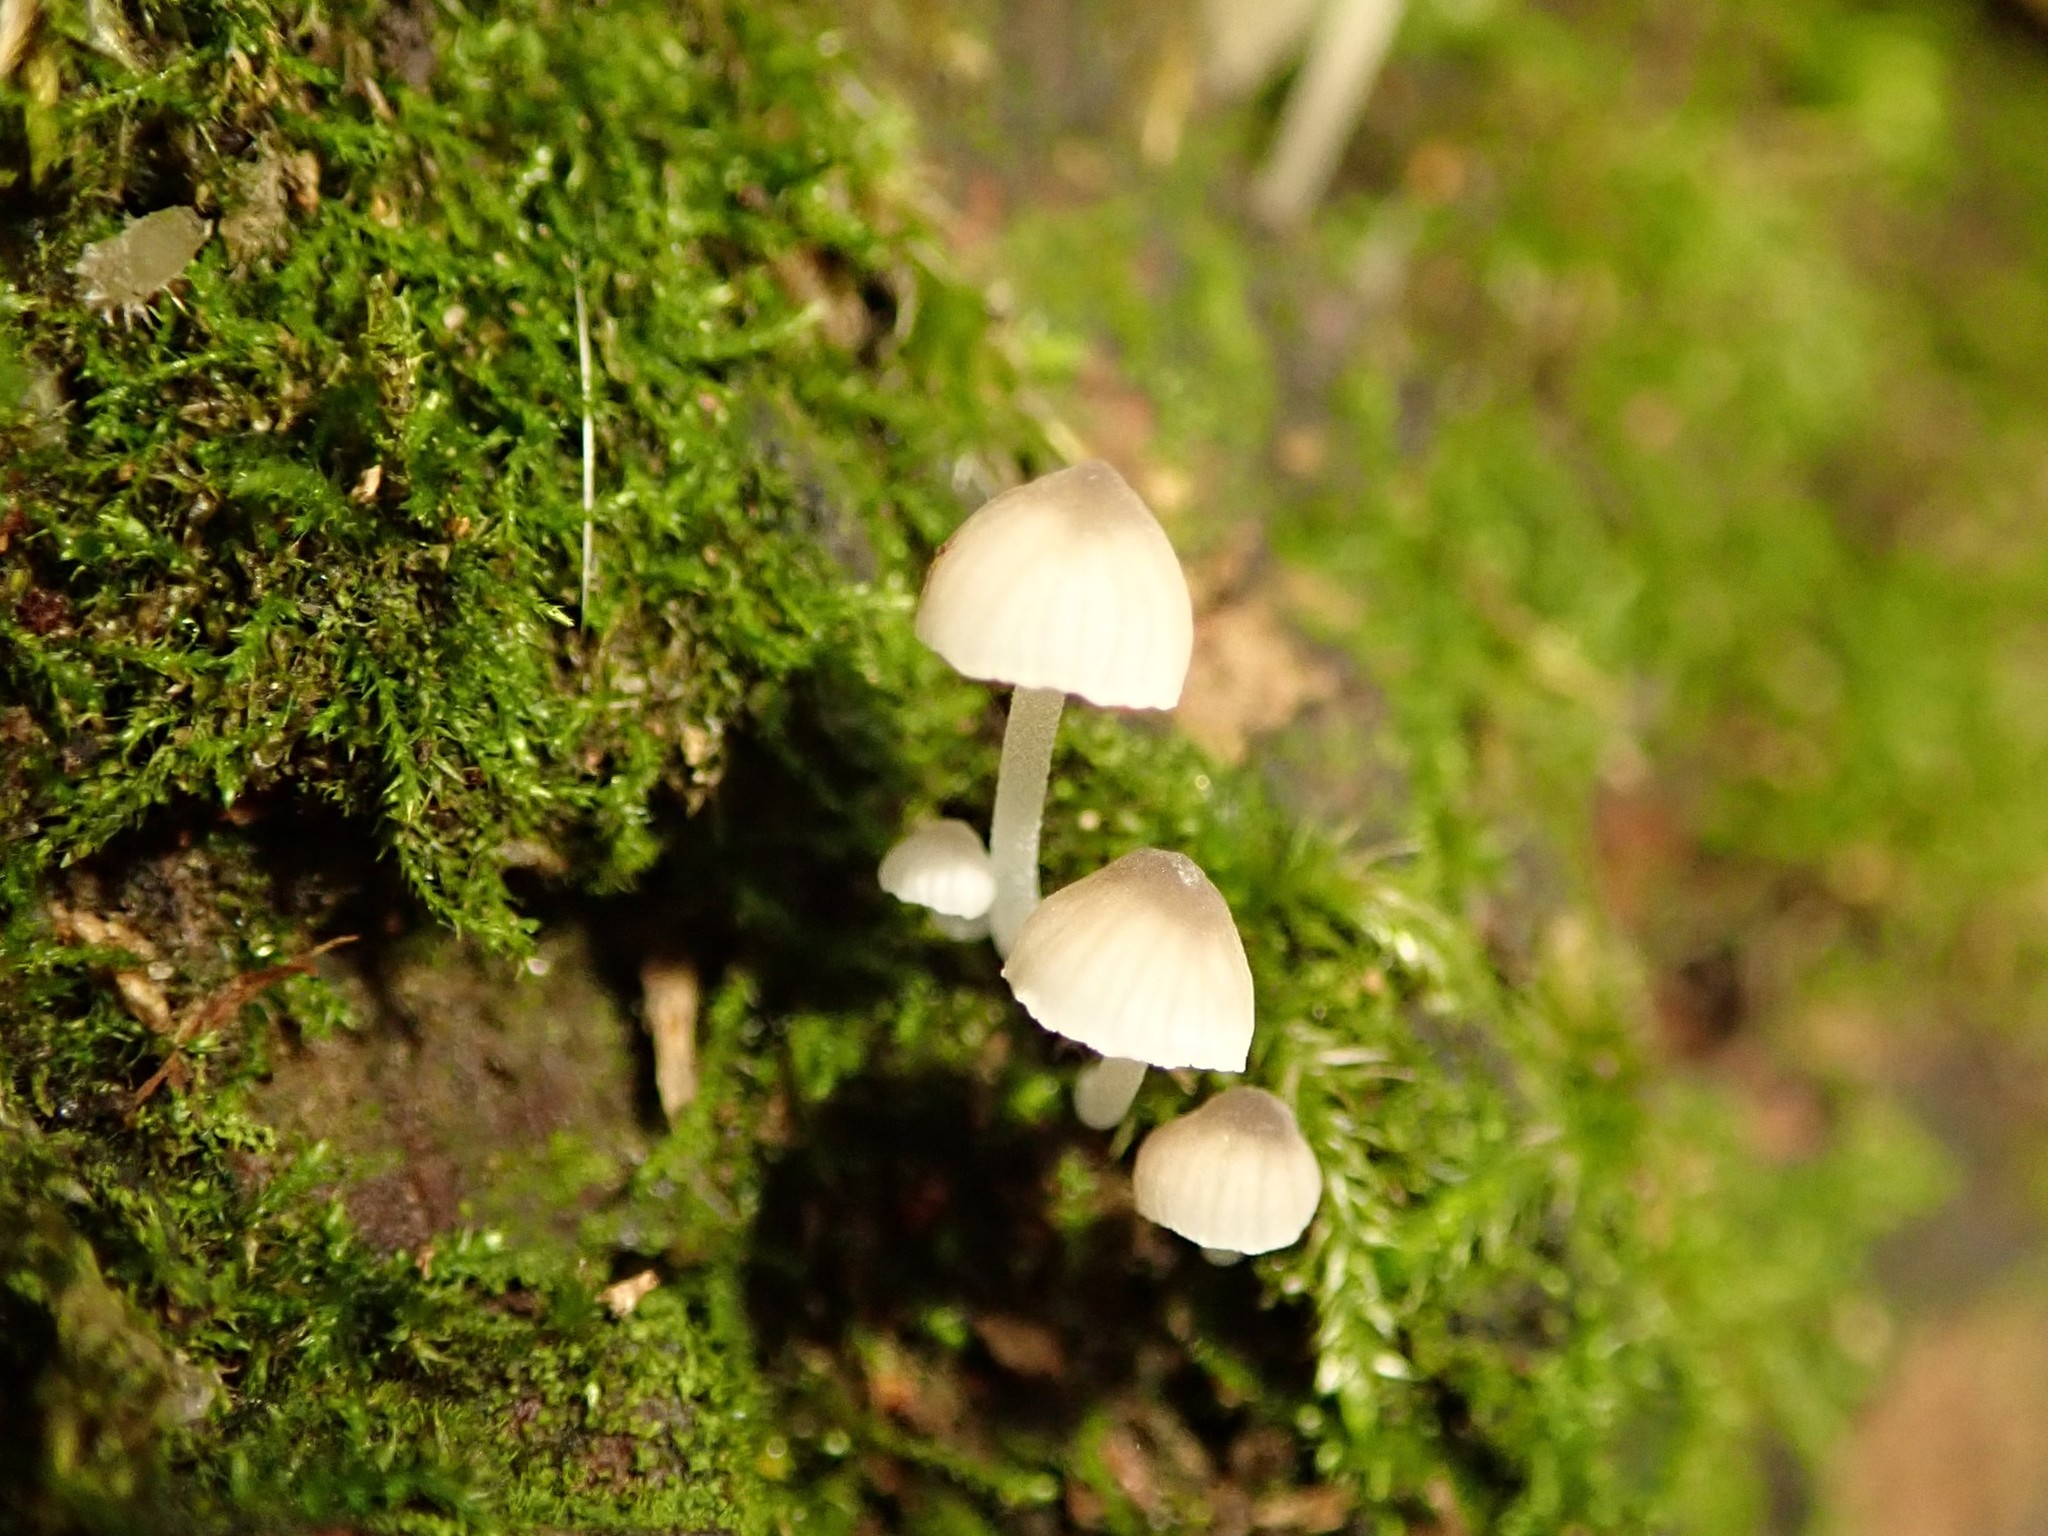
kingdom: Fungi
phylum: Basidiomycota
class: Agaricomycetes
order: Agaricales
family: Psathyrellaceae
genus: Coprinellus
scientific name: Coprinellus disseminatus
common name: Fairies' bonnets
